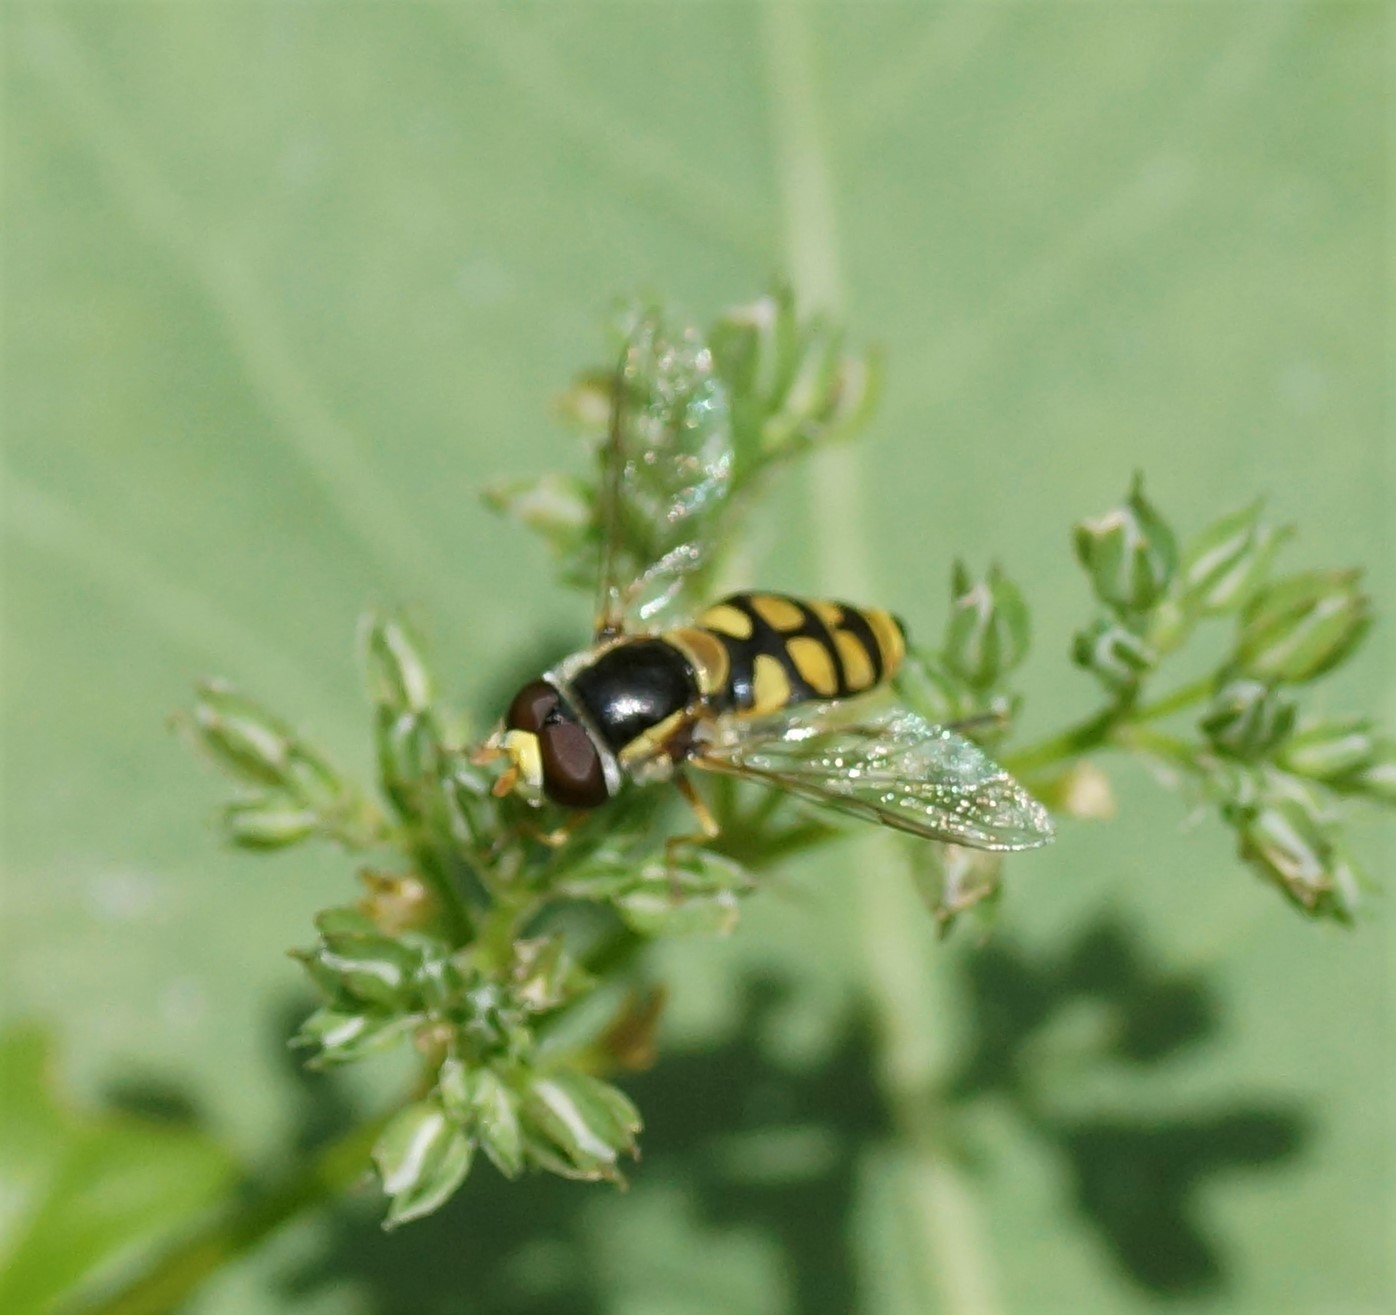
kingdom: Animalia
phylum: Arthropoda
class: Insecta
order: Diptera
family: Syrphidae
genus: Simosyrphus
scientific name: Simosyrphus grandicornis
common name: Hoverfly
